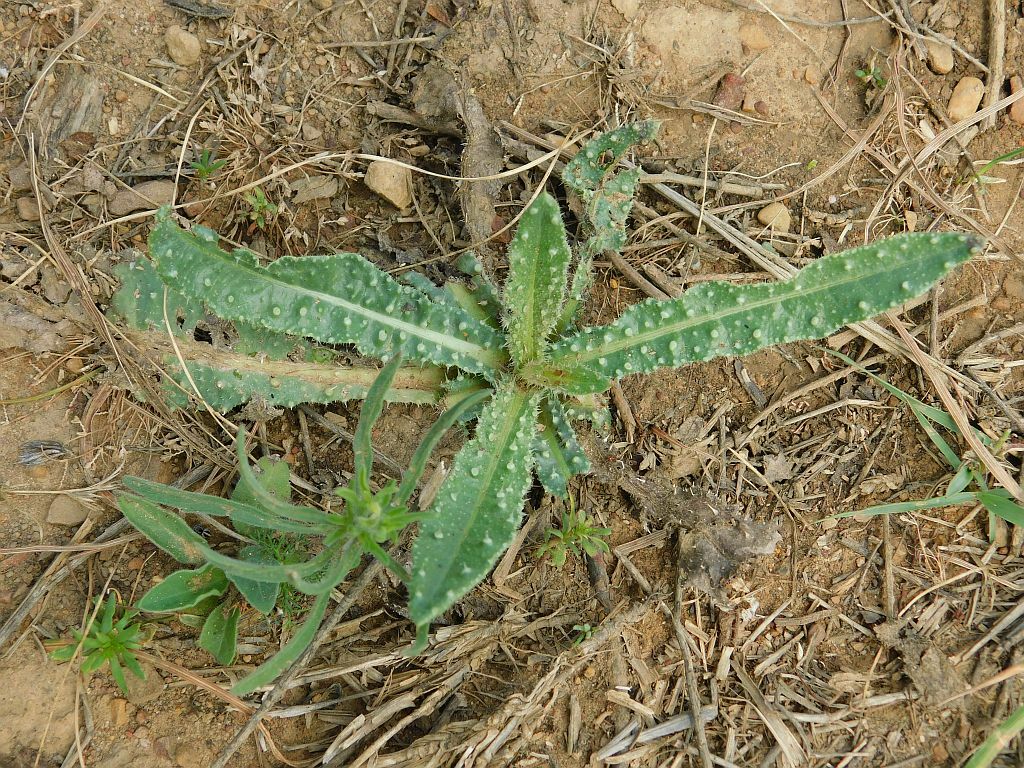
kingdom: Plantae
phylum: Tracheophyta
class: Magnoliopsida
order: Asterales
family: Asteraceae
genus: Helminthotheca
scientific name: Helminthotheca echioides
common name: Ox-tongue
